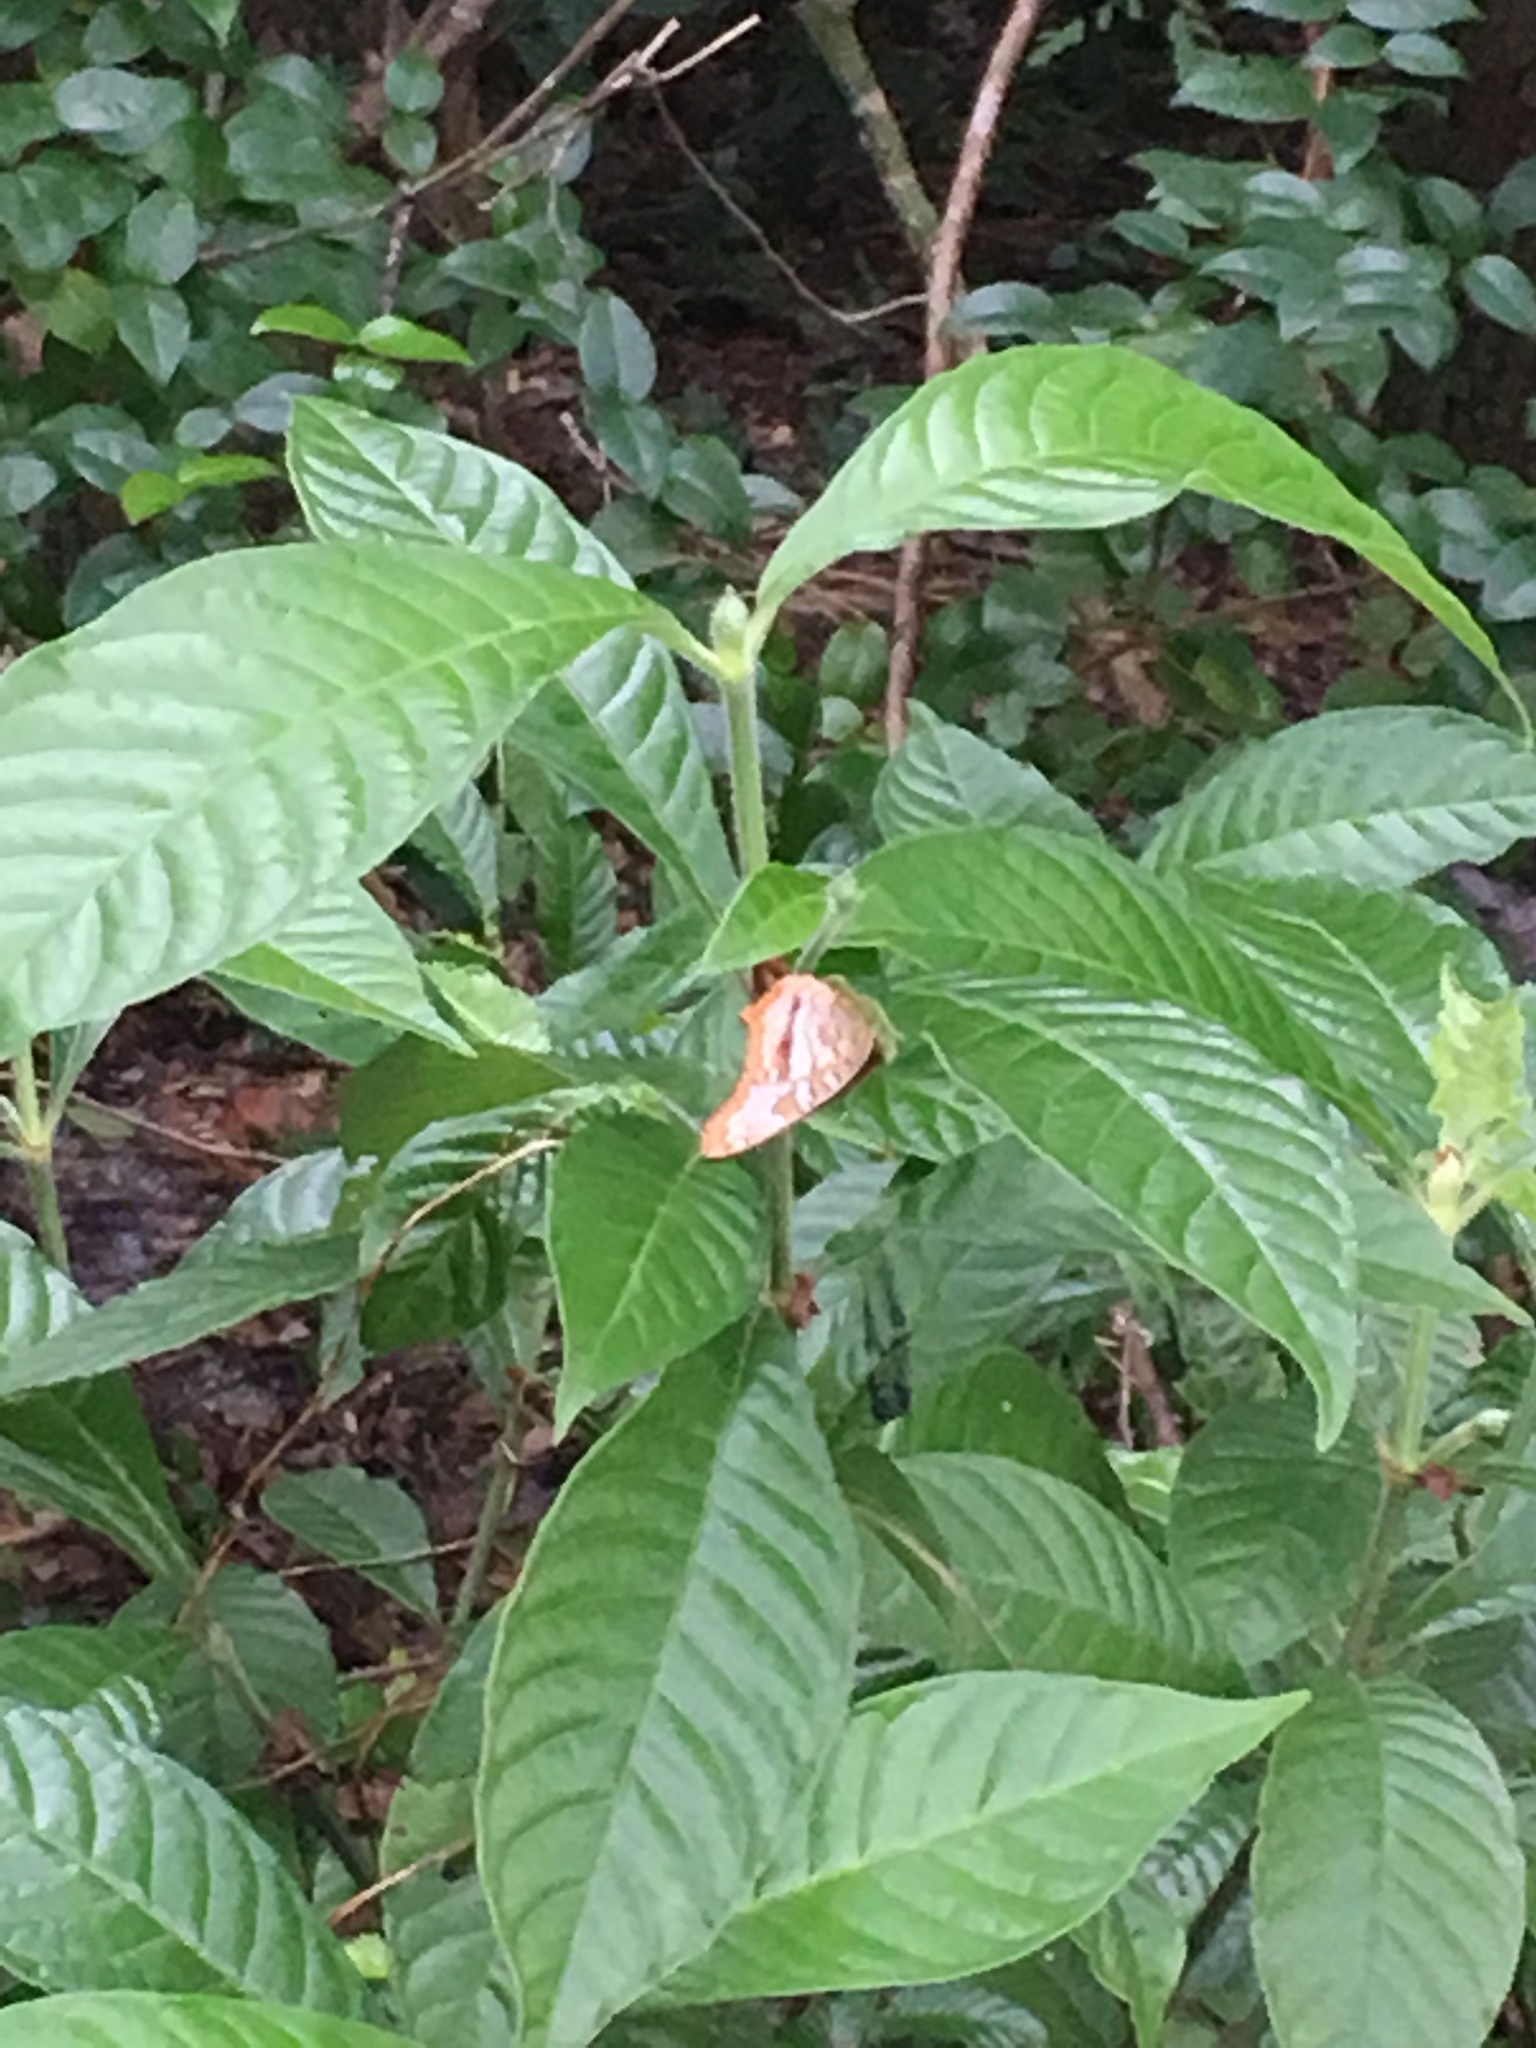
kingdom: Animalia
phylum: Arthropoda
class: Insecta
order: Lepidoptera
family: Nymphalidae
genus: Anartia
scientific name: Anartia jatrophae
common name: White peacock
